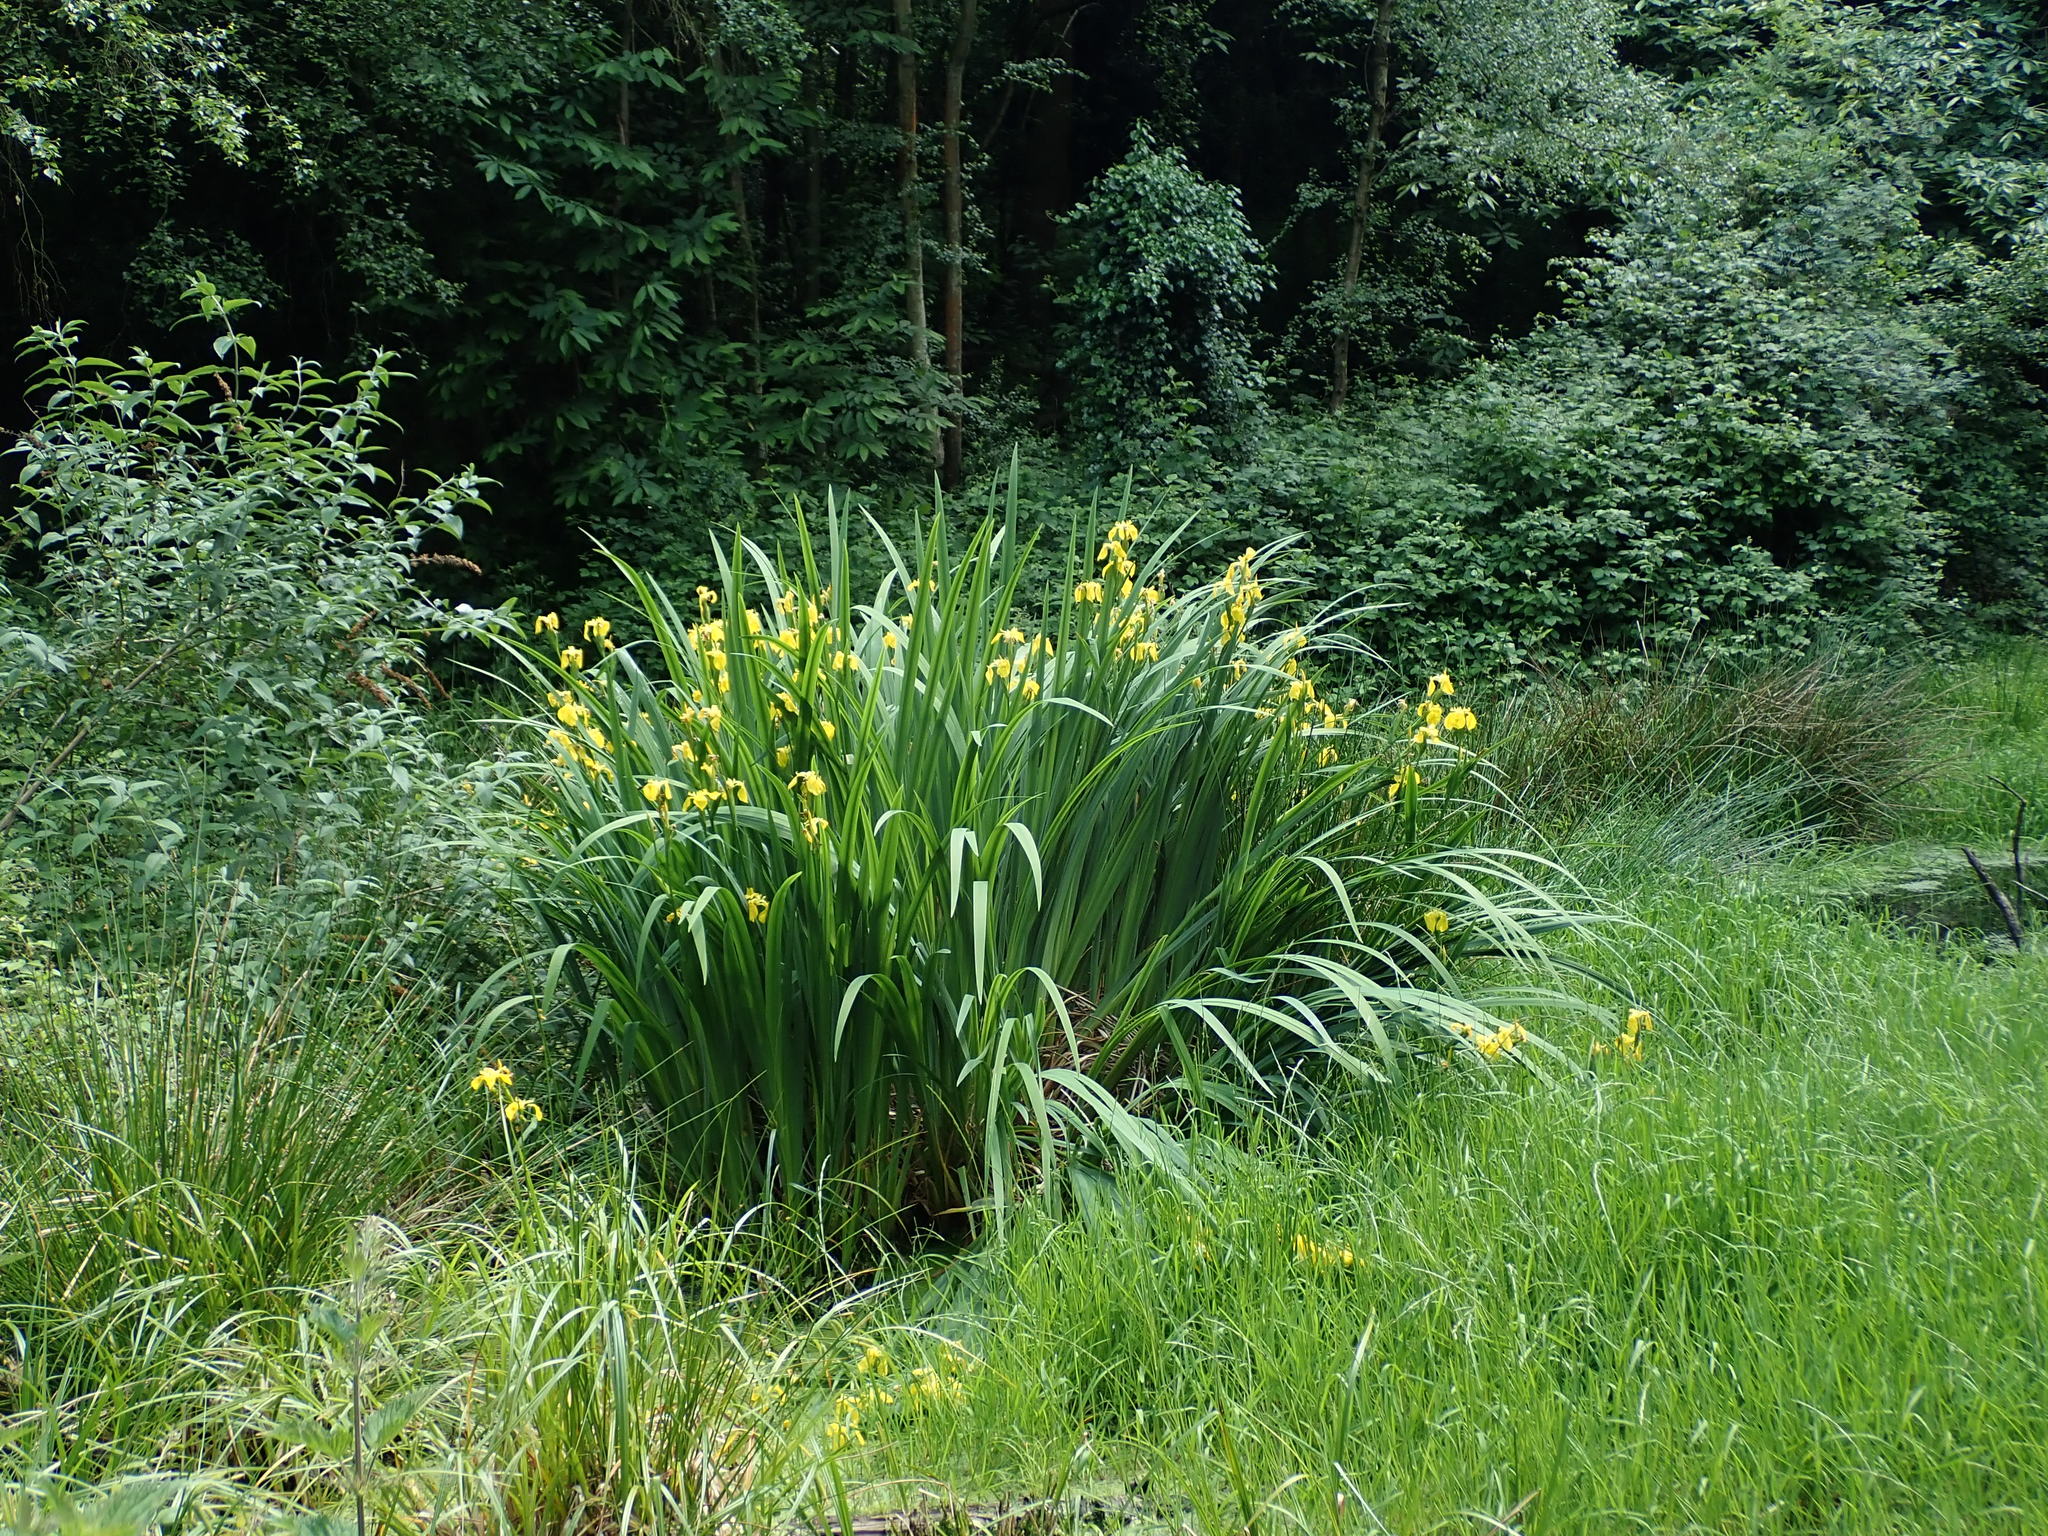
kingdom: Plantae
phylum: Tracheophyta
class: Liliopsida
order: Asparagales
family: Iridaceae
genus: Iris
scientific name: Iris pseudacorus
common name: Yellow flag
